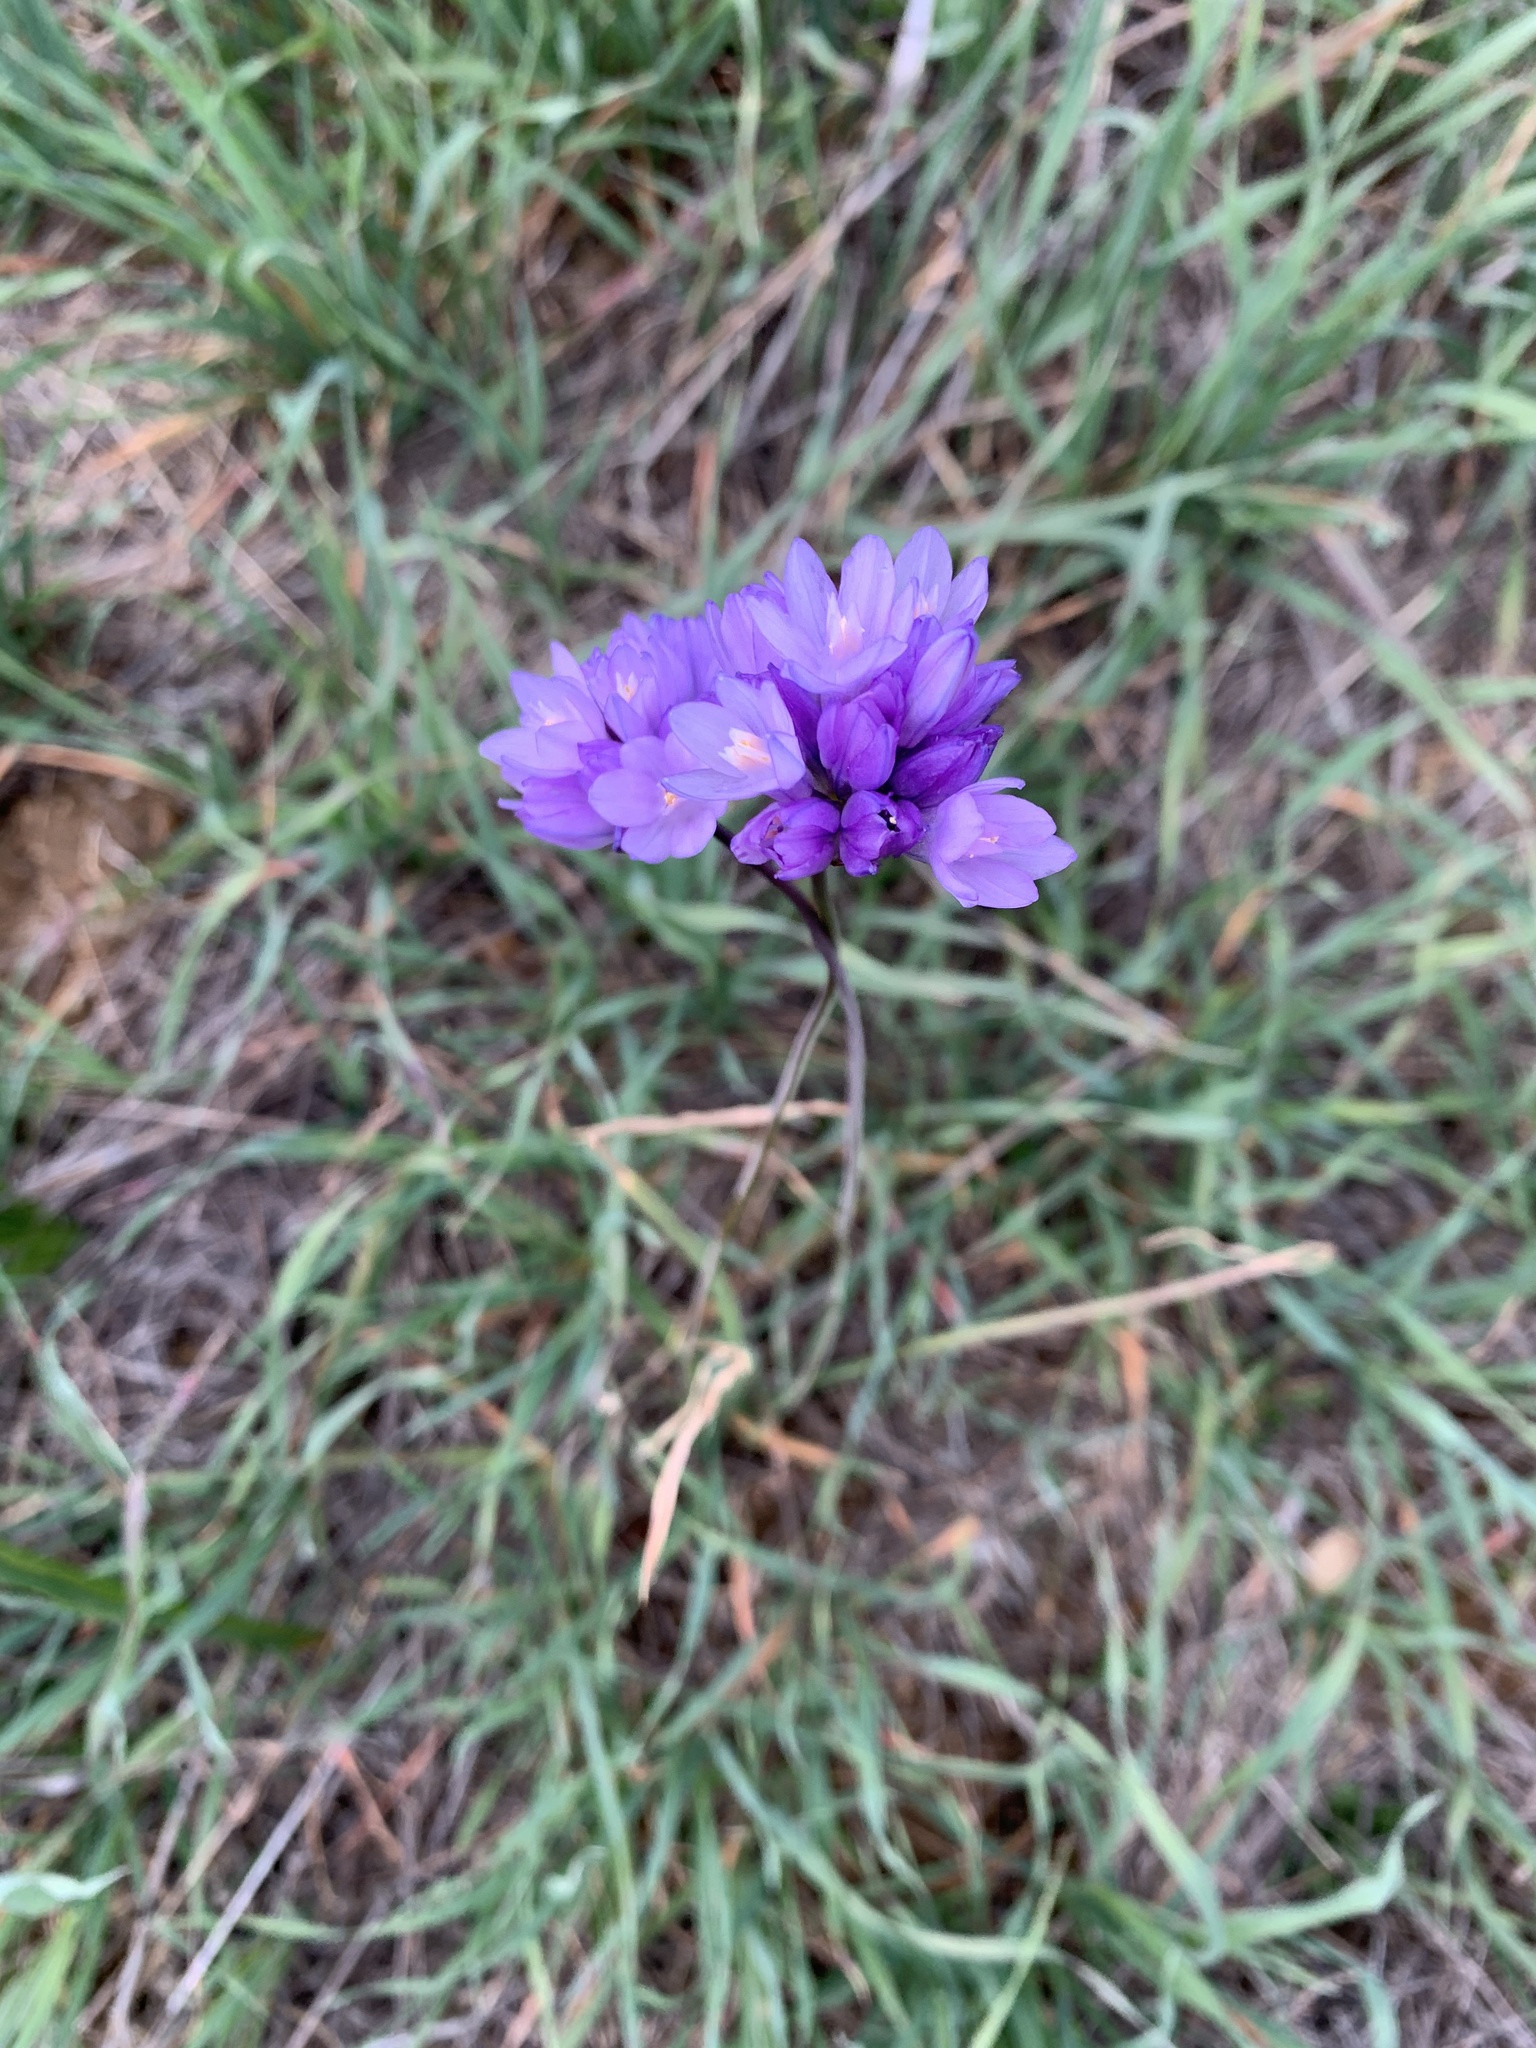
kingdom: Plantae
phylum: Tracheophyta
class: Liliopsida
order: Asparagales
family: Asparagaceae
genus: Dipterostemon
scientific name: Dipterostemon capitatus
